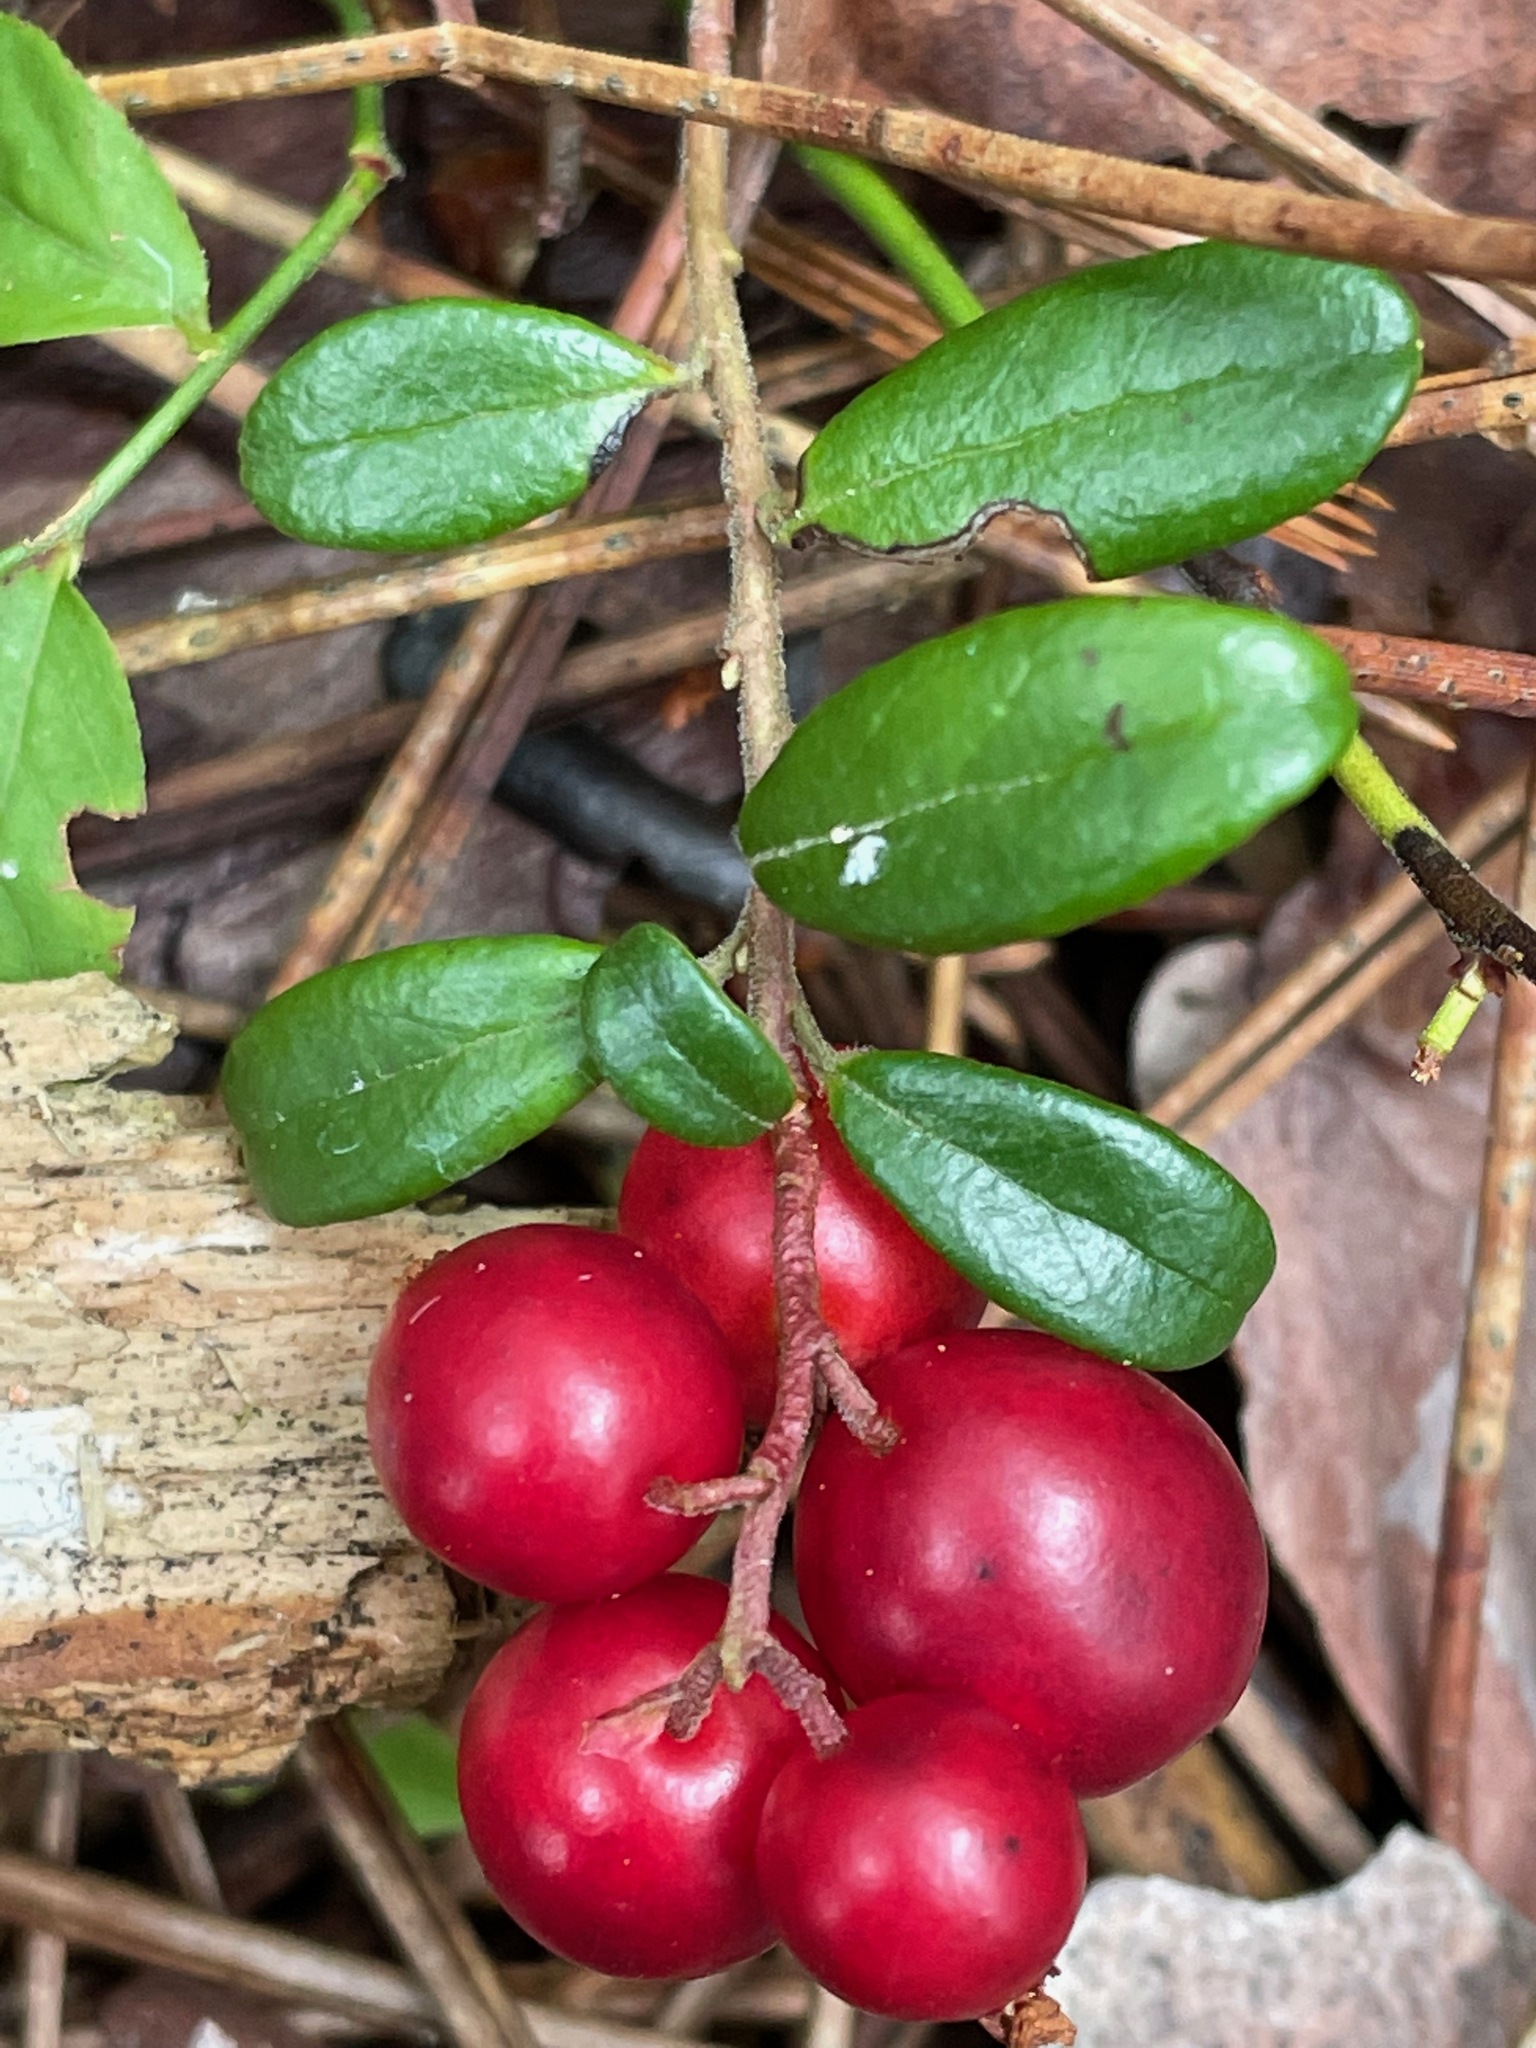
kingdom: Plantae
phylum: Tracheophyta
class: Magnoliopsida
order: Ericales
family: Ericaceae
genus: Vaccinium
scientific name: Vaccinium vitis-idaea
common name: Cowberry
